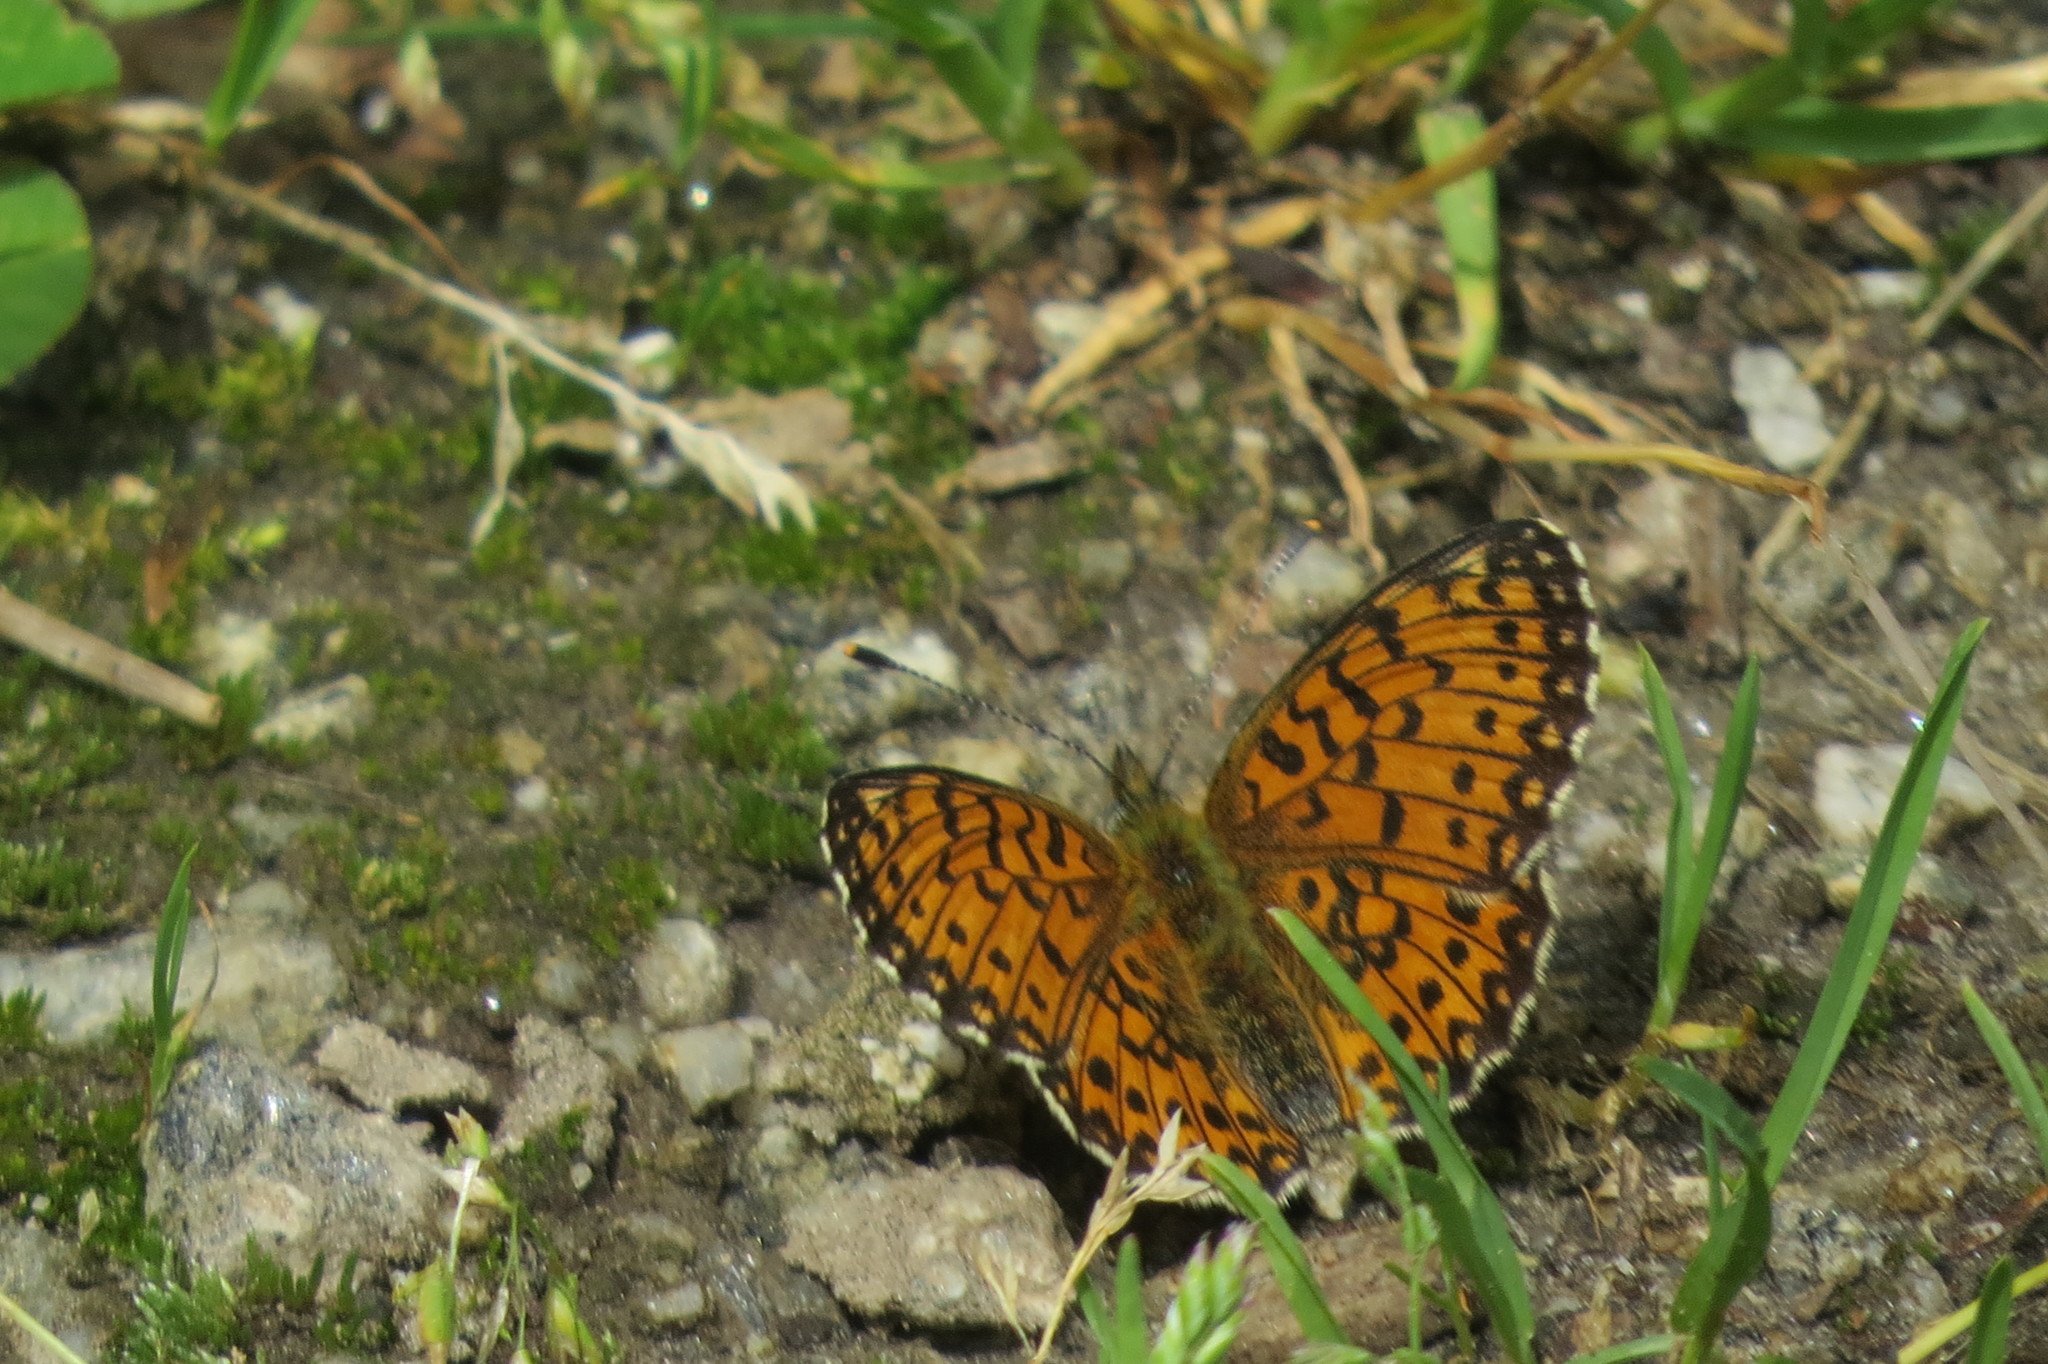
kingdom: Animalia
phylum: Arthropoda
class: Insecta
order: Lepidoptera
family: Nymphalidae
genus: Boloria
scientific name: Boloria selene
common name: Small pearl-bordered fritillary
